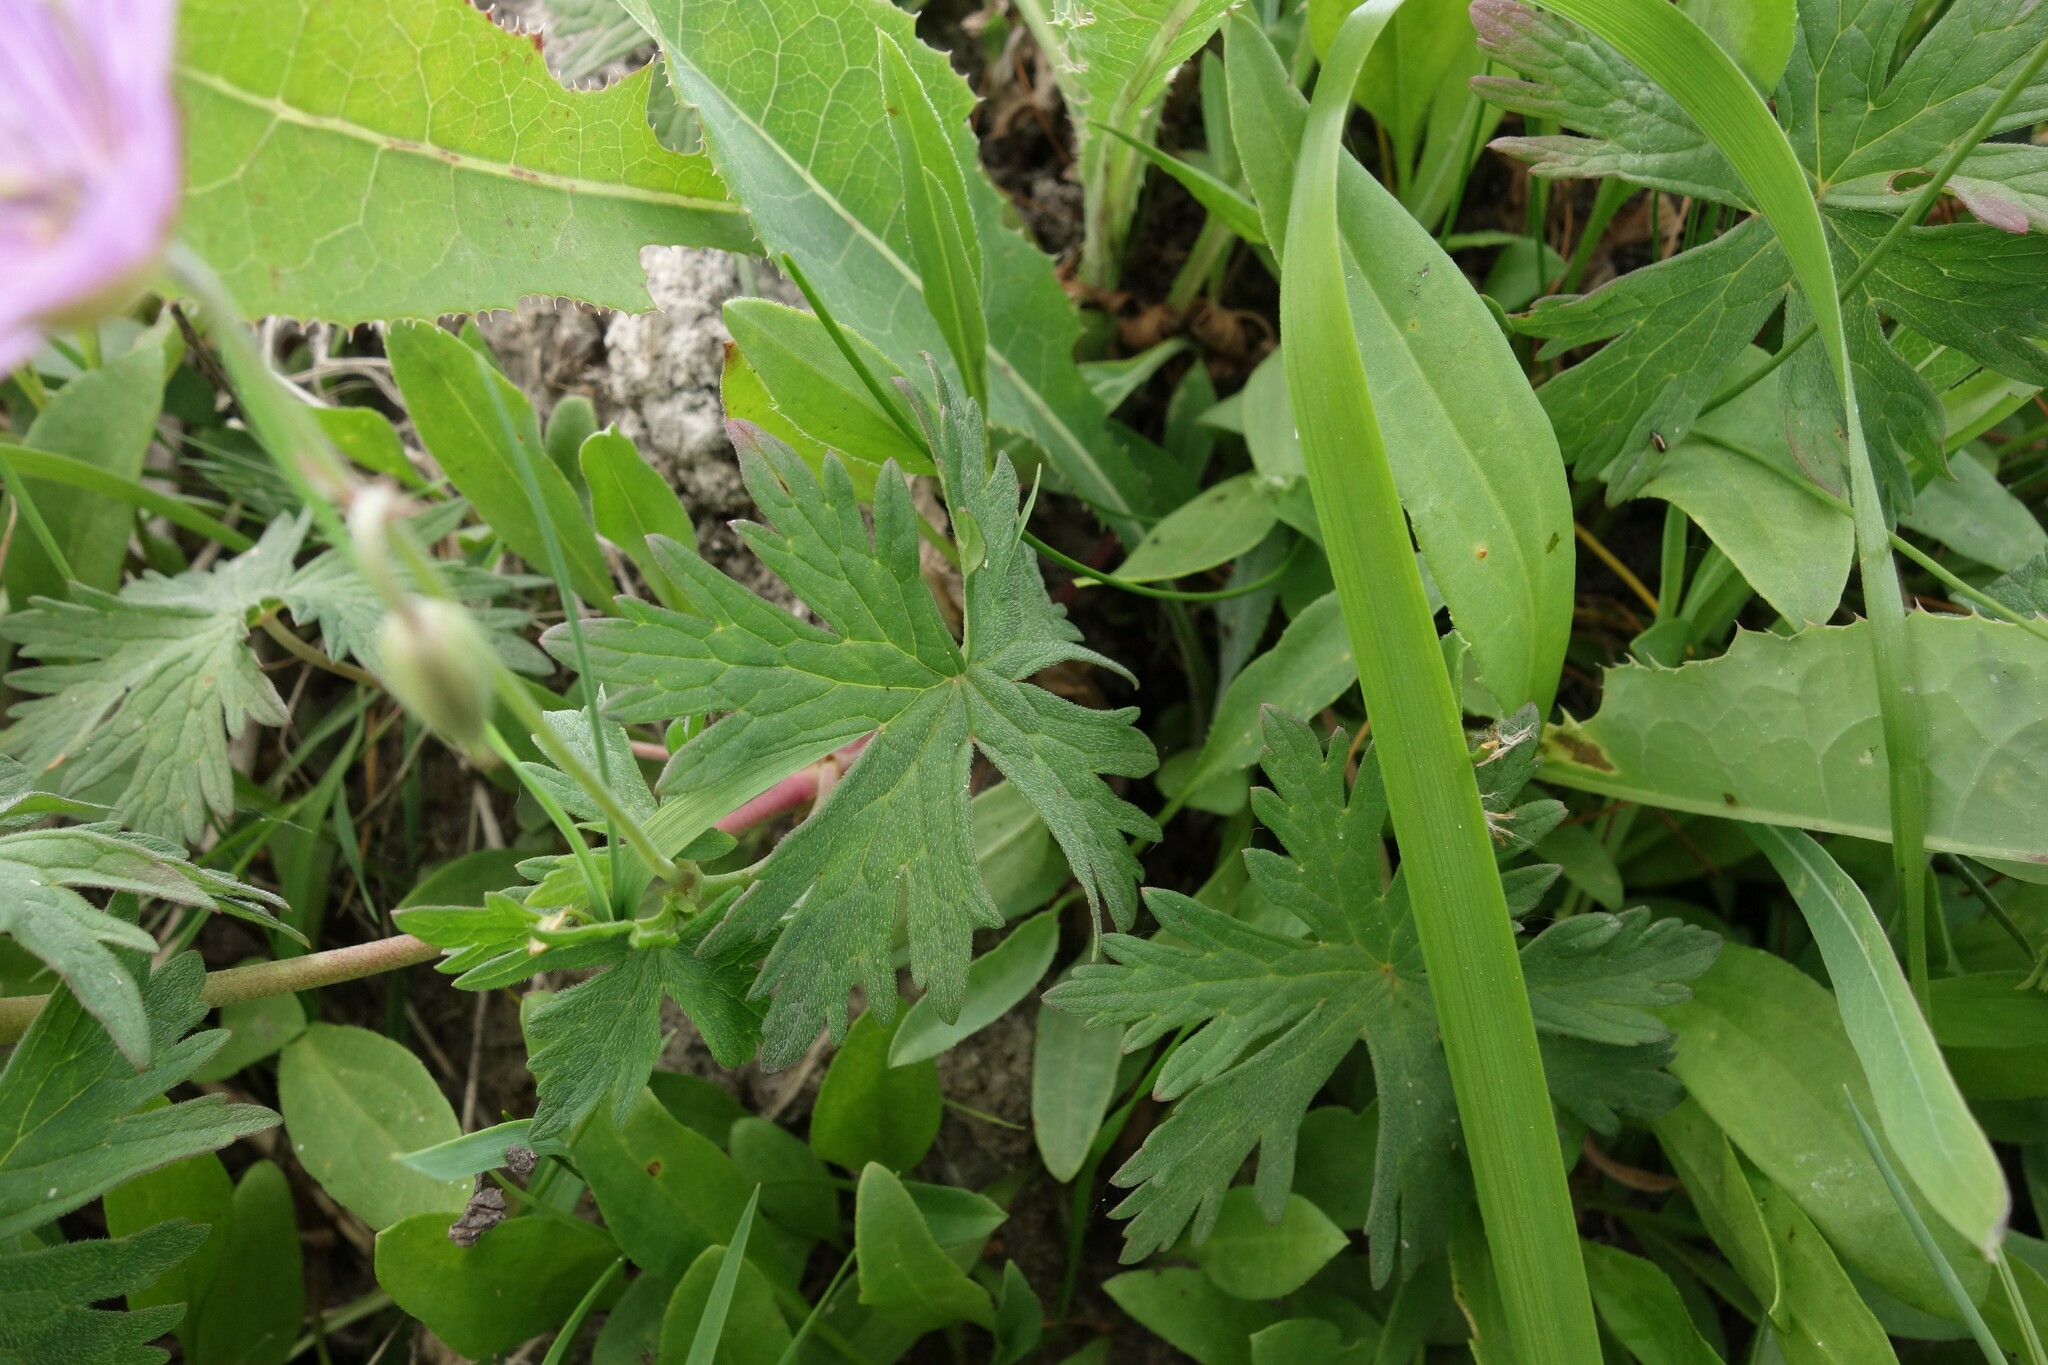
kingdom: Plantae
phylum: Tracheophyta
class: Magnoliopsida
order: Geraniales
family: Geraniaceae
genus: Geranium
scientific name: Geranium collinum
